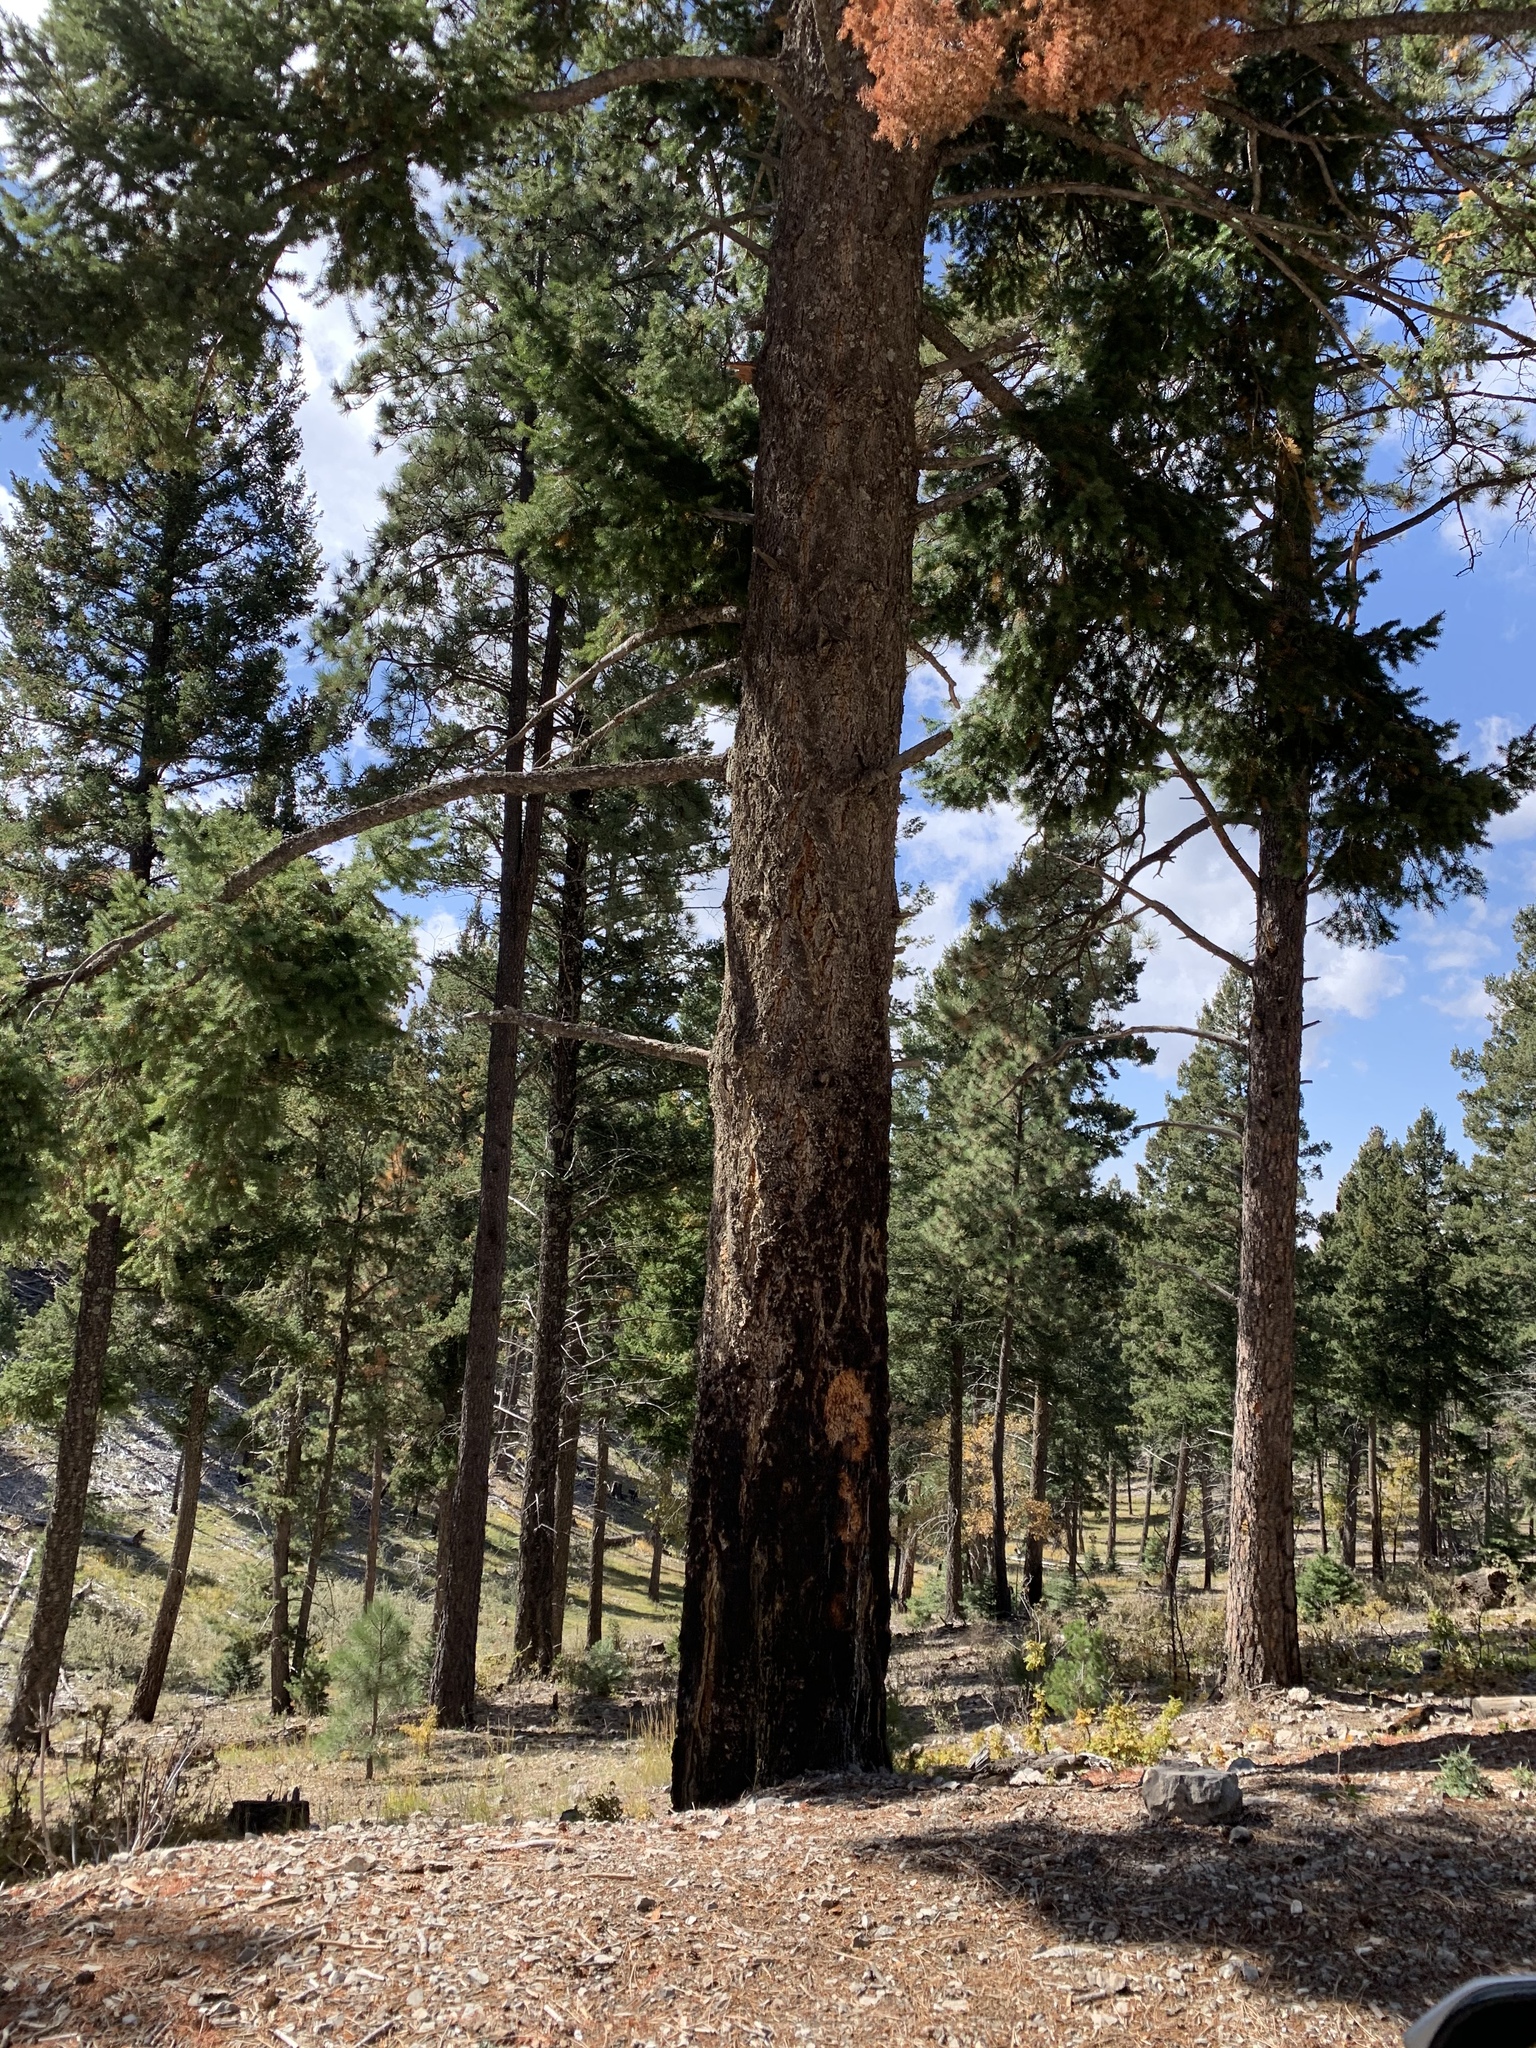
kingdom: Plantae
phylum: Tracheophyta
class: Pinopsida
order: Pinales
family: Pinaceae
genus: Pseudotsuga
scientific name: Pseudotsuga menziesii
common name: Douglas fir
